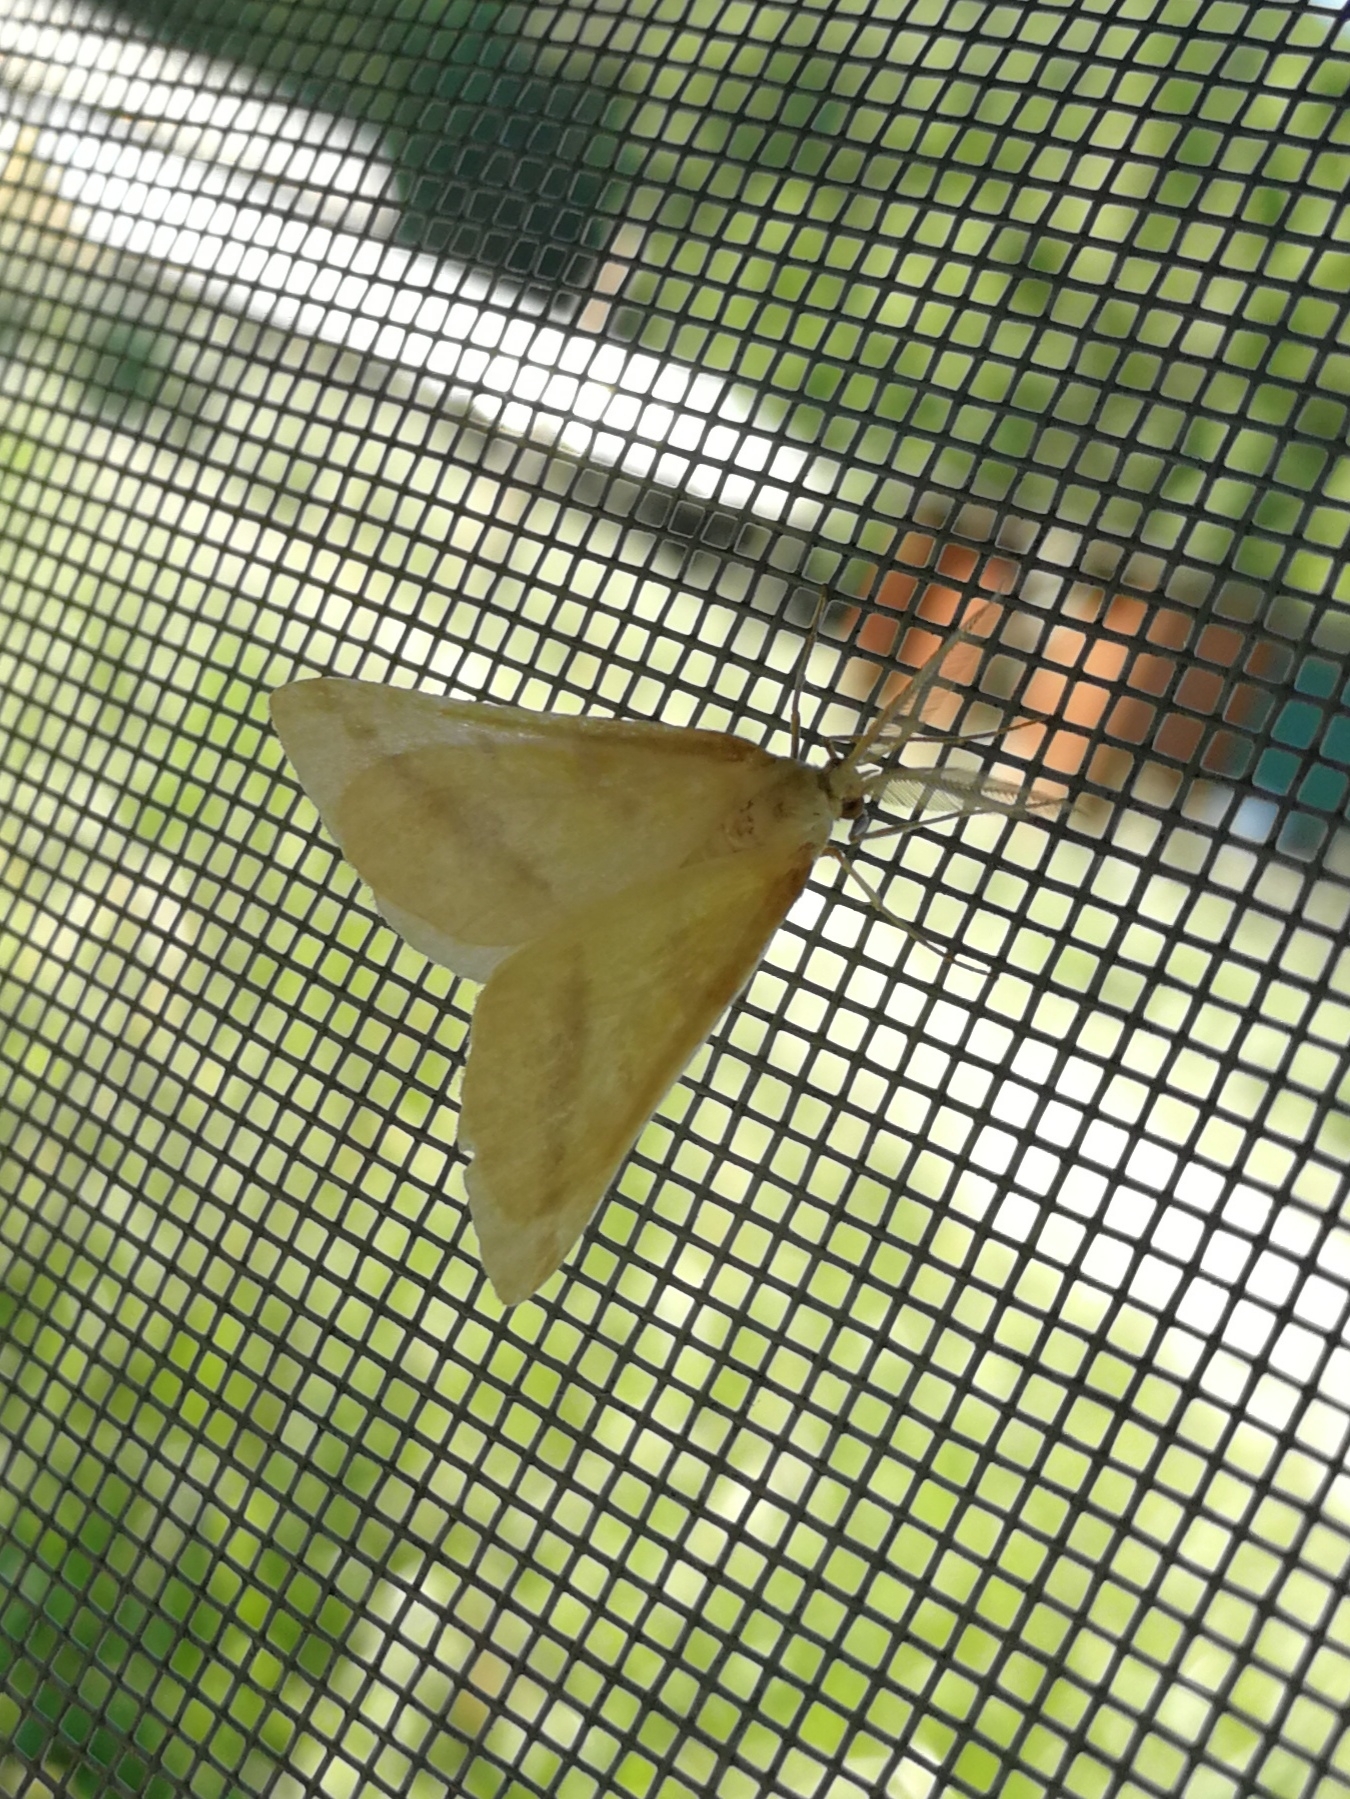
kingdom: Animalia
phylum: Arthropoda
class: Insecta
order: Lepidoptera
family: Geometridae
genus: Aspitates
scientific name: Aspitates ochrearia
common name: Yellow belle
